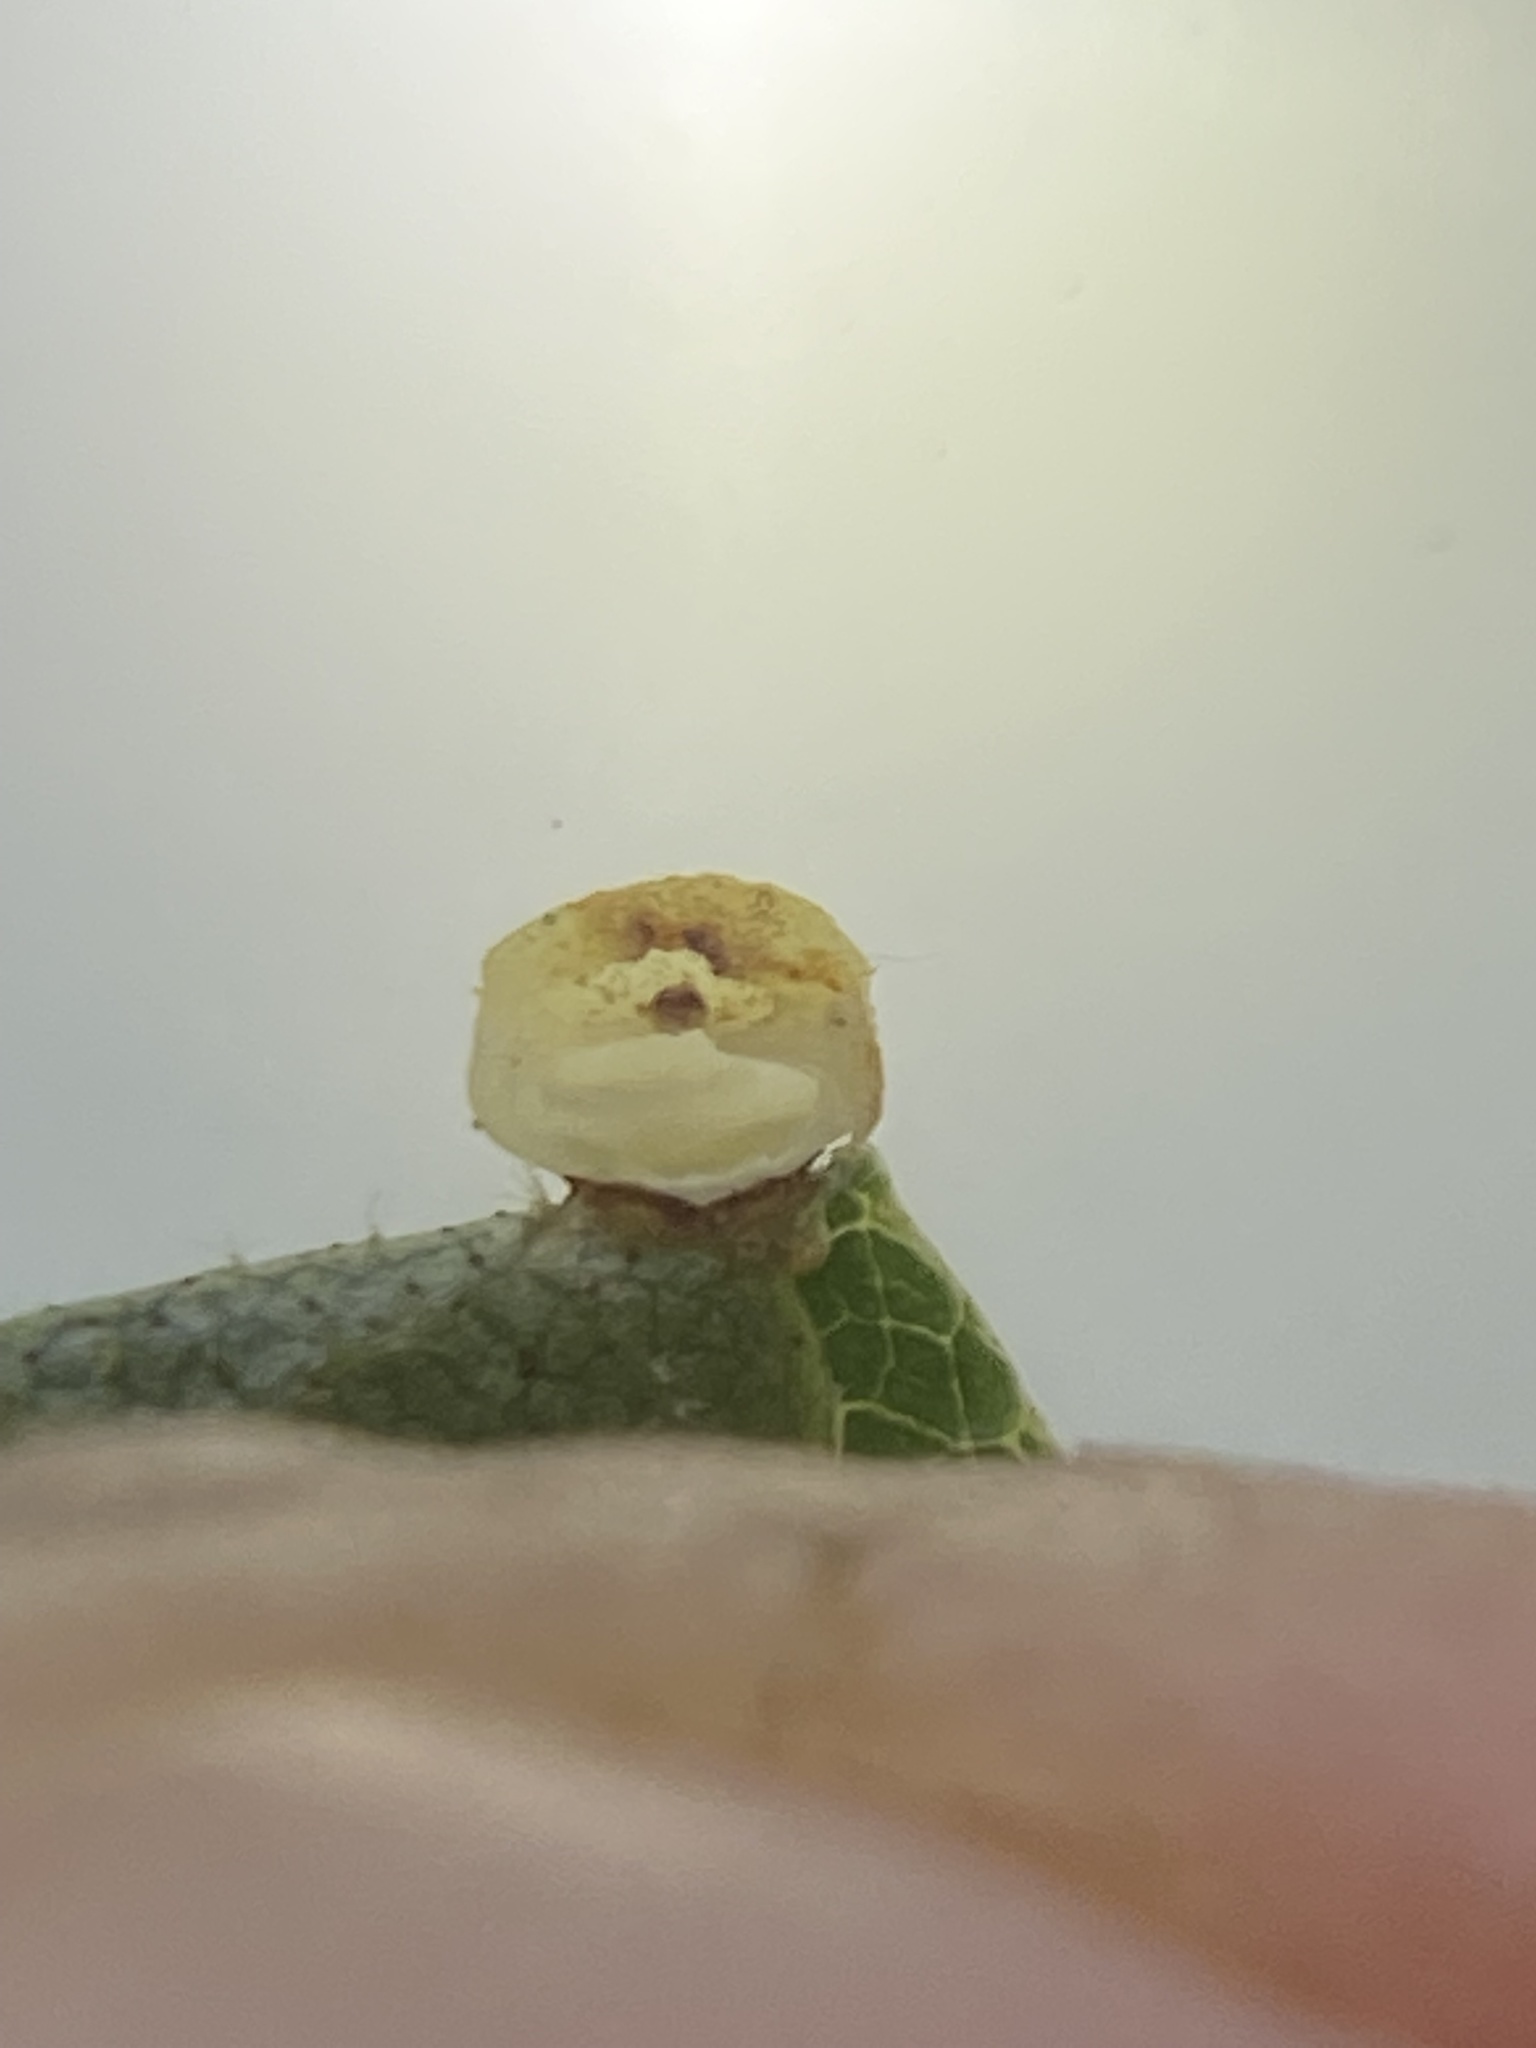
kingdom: Animalia
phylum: Arthropoda
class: Insecta
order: Diptera
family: Cecidomyiidae
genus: Caryomyia
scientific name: Caryomyia flaticrustum
